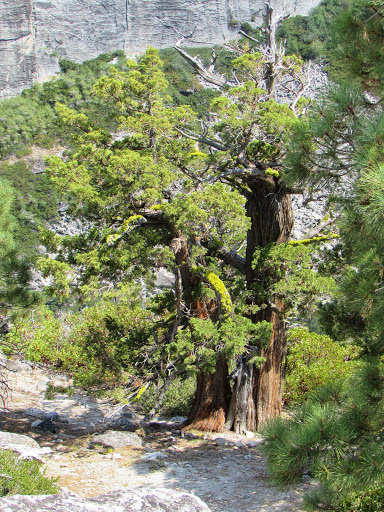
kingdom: Plantae
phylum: Tracheophyta
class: Pinopsida
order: Pinales
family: Cupressaceae
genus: Juniperus
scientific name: Juniperus occidentalis
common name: Western juniper
